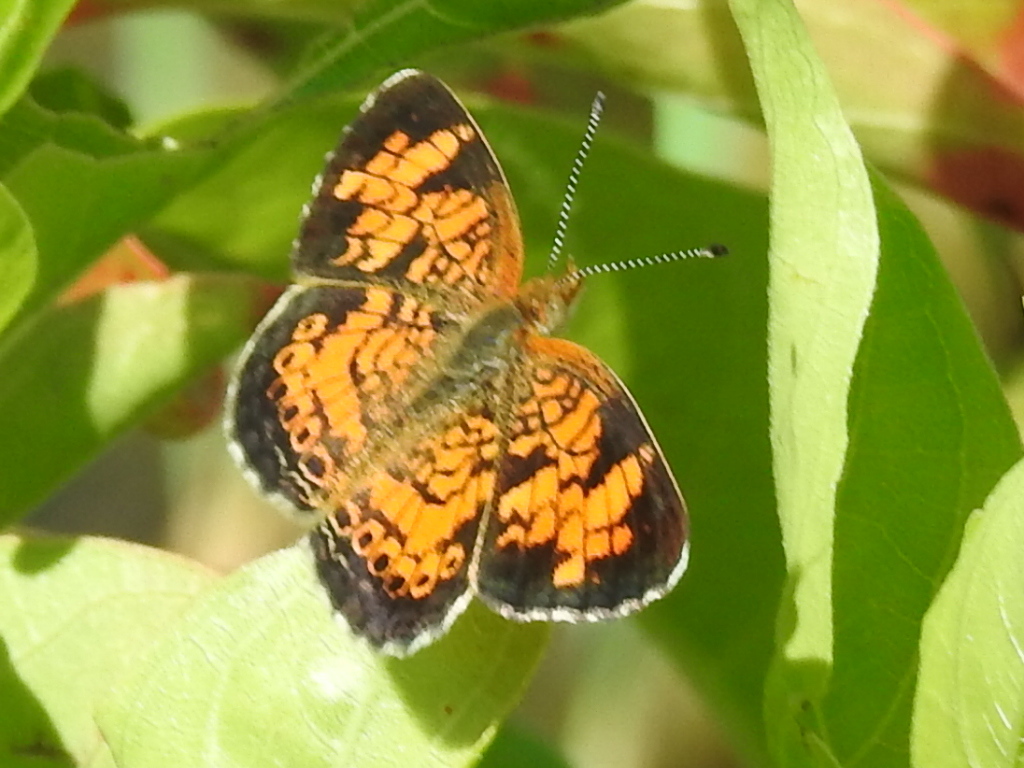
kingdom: Animalia
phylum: Arthropoda
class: Insecta
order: Lepidoptera
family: Nymphalidae
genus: Phyciodes
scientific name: Phyciodes tharos
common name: Pearl crescent
